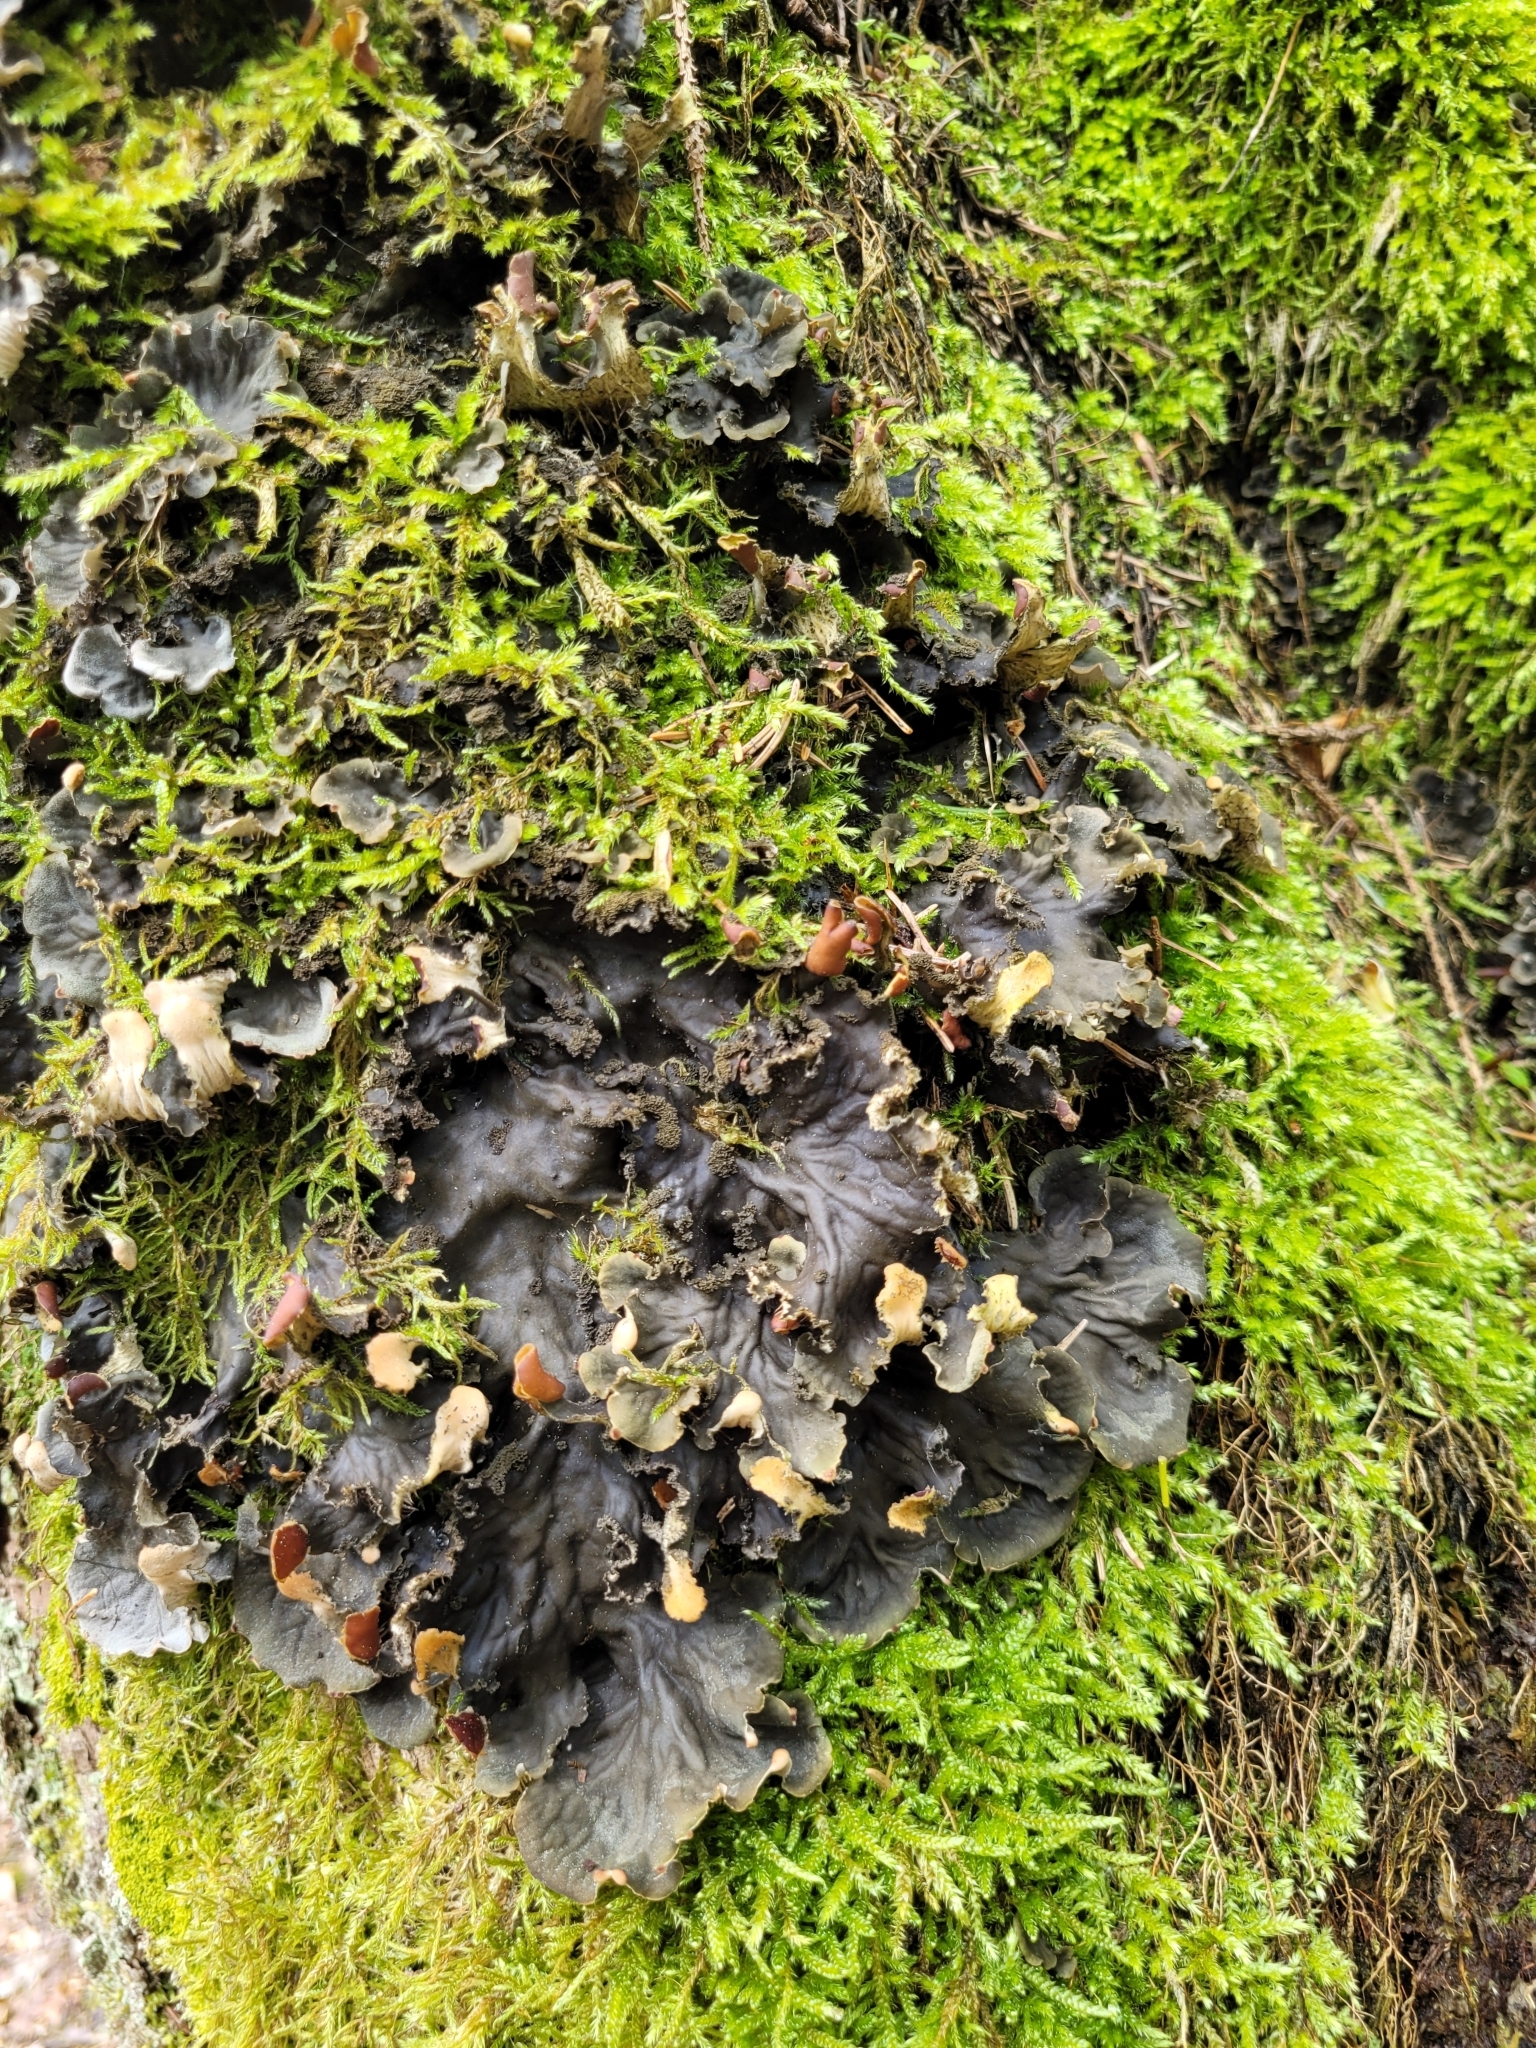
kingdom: Fungi
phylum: Ascomycota
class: Lecanoromycetes
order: Peltigerales
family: Peltigeraceae
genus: Peltigera
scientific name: Peltigera praetextata
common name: Scaly dog-lichen
